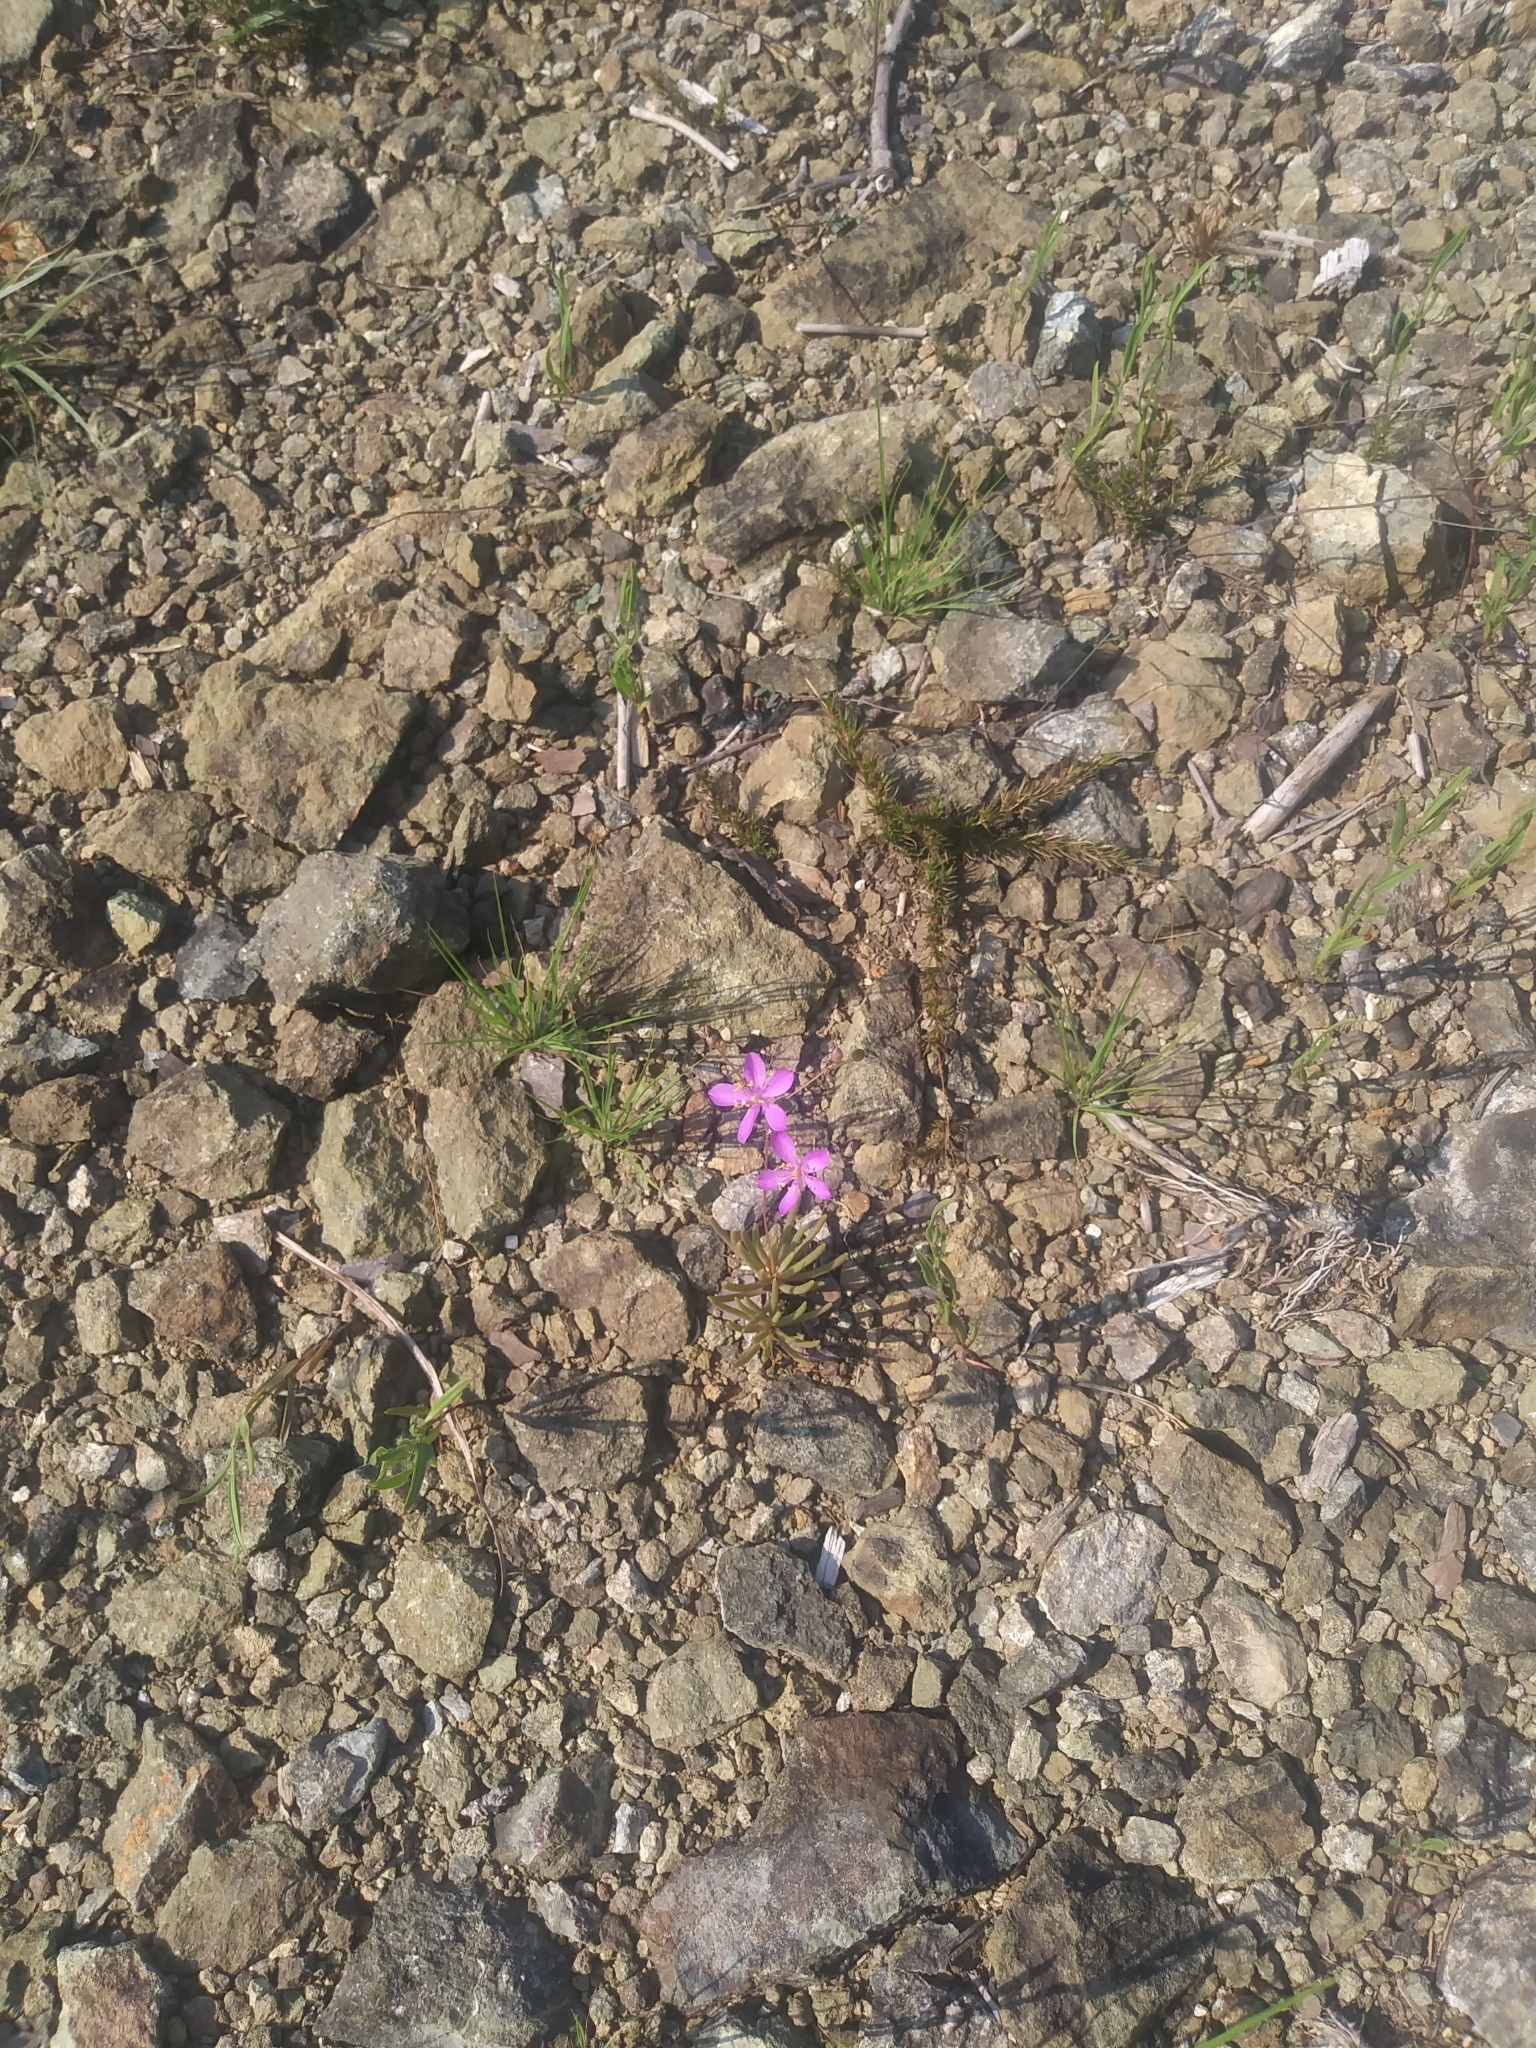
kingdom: Plantae
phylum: Tracheophyta
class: Magnoliopsida
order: Caryophyllales
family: Montiaceae
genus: Phemeranthus
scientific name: Phemeranthus teretifolius
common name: Quill fameflower
